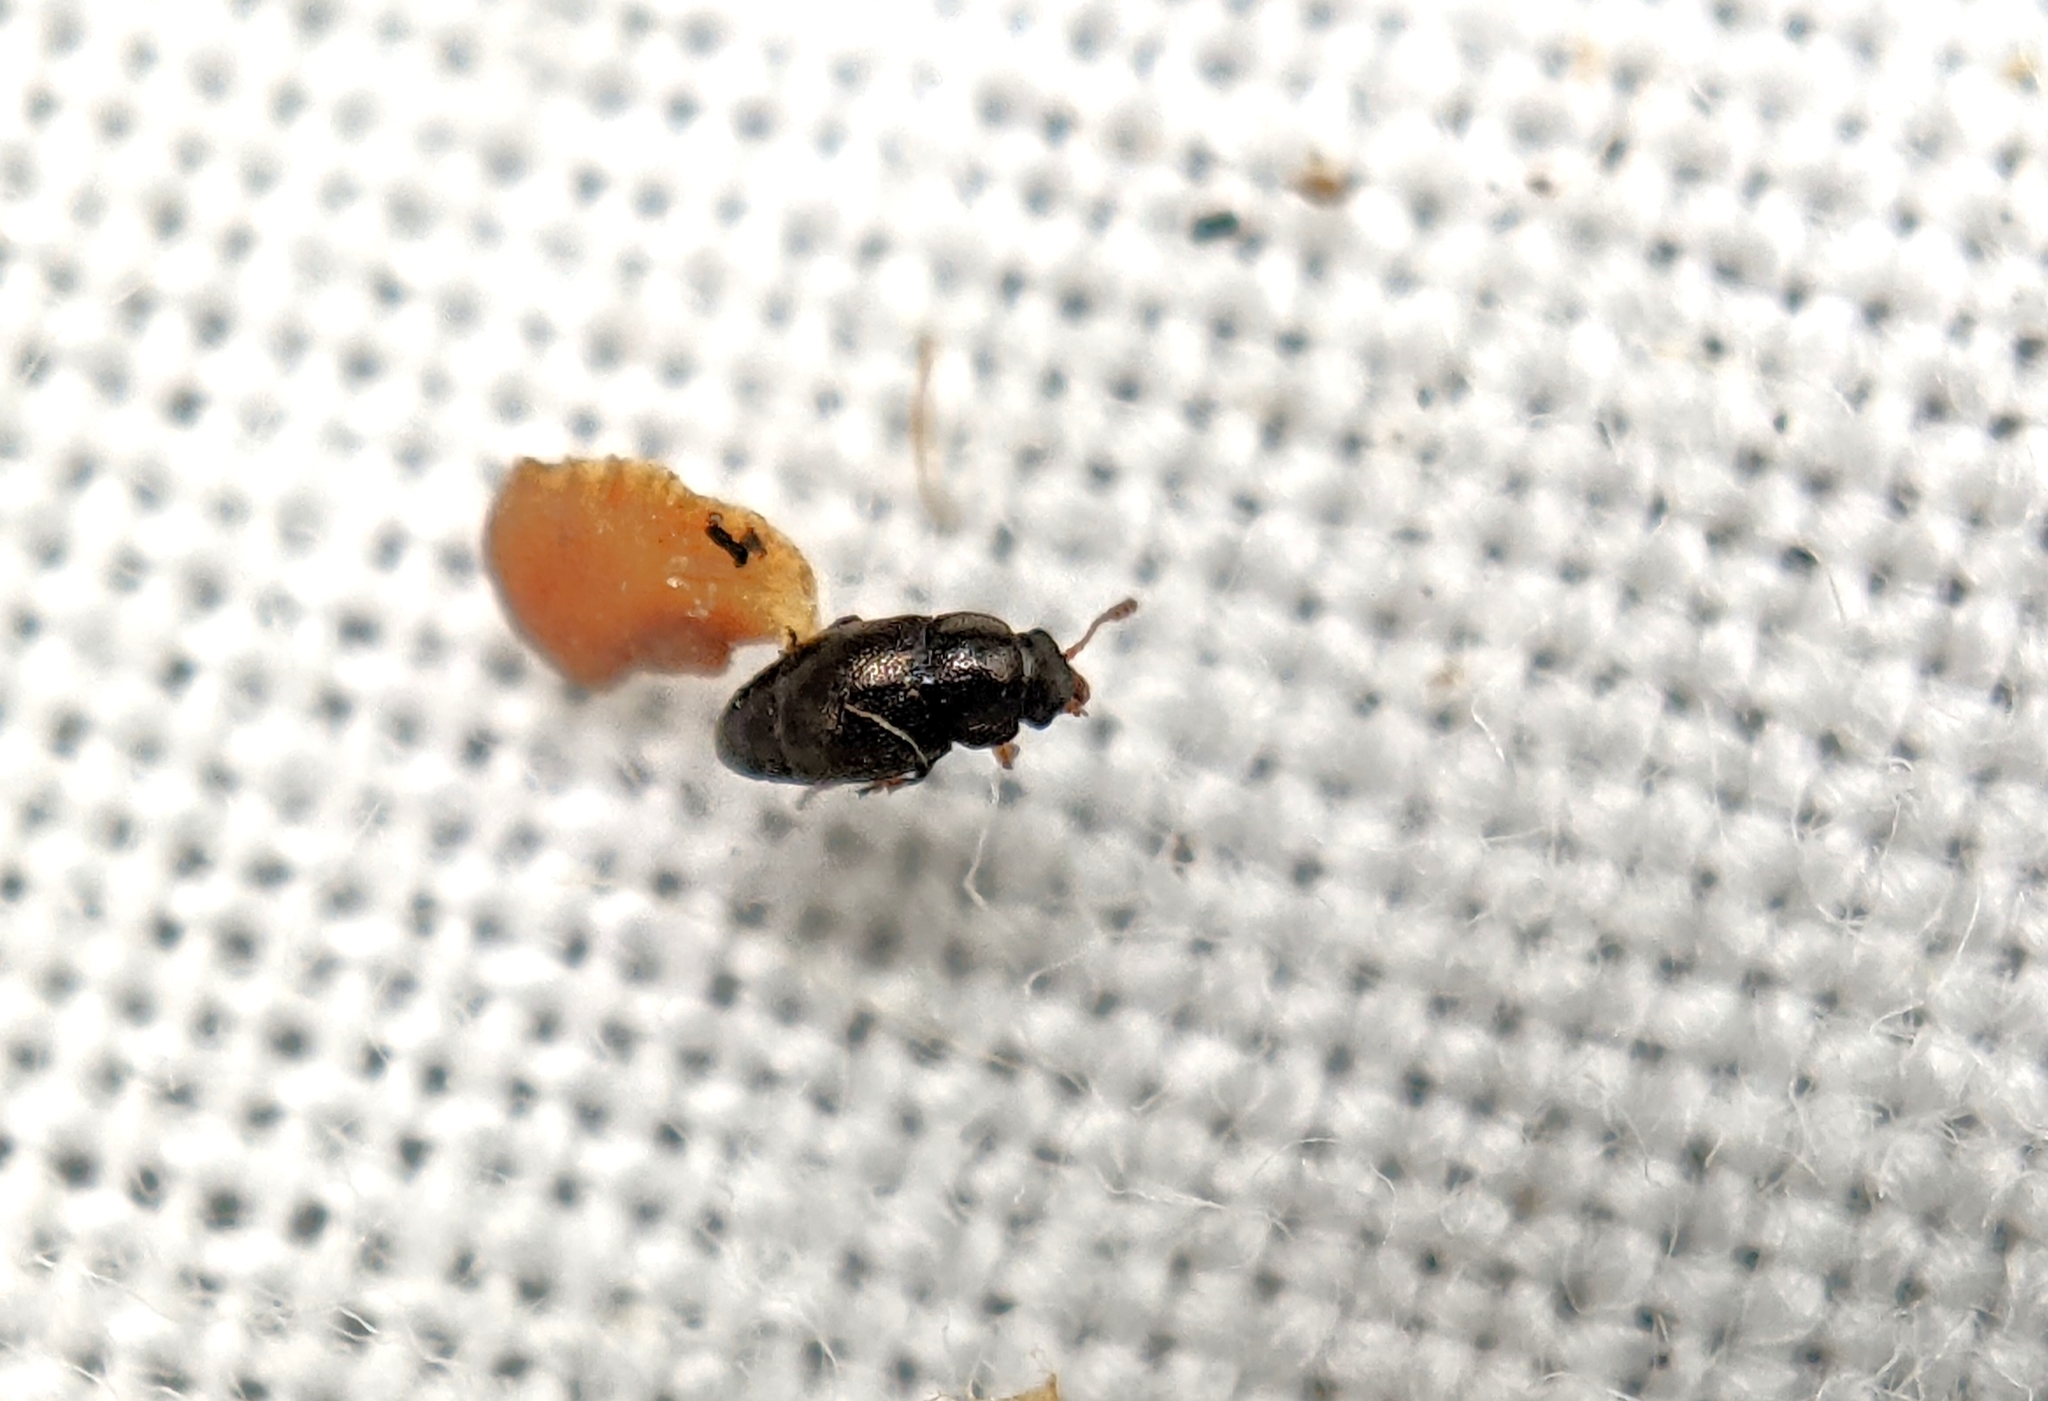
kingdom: Animalia
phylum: Arthropoda
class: Insecta
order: Coleoptera
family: Kateretidae
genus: Brachypterus
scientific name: Brachypterus urticae
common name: Sap beetle
